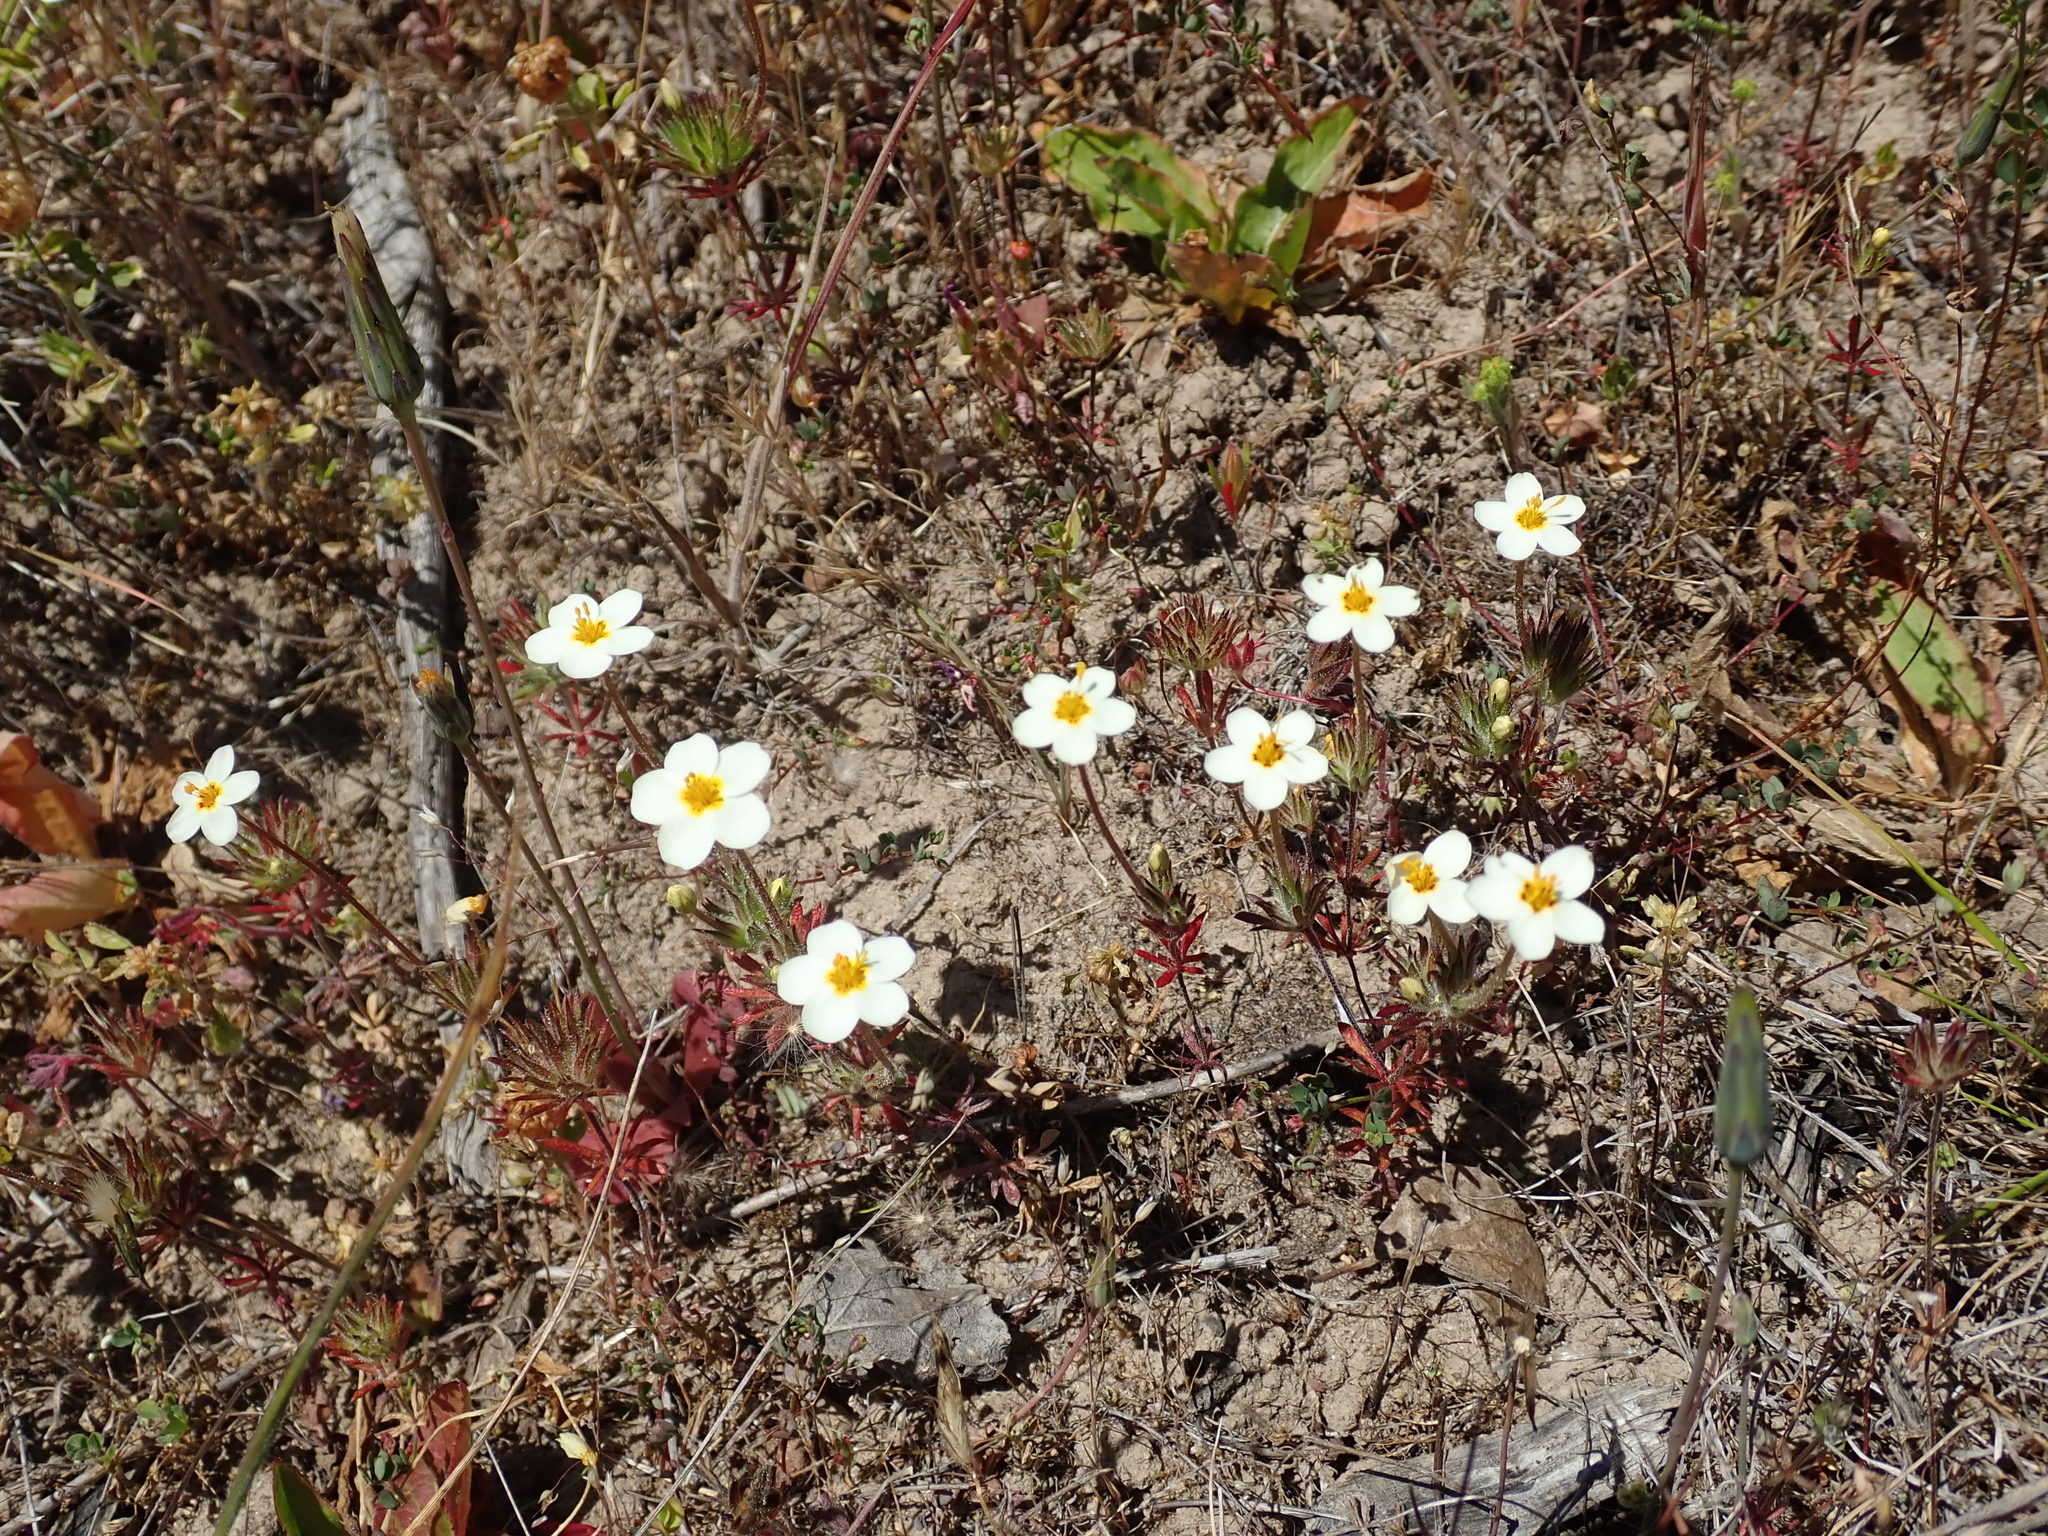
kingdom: Plantae
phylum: Tracheophyta
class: Magnoliopsida
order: Ericales
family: Polemoniaceae
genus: Leptosiphon
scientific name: Leptosiphon parviflorus
